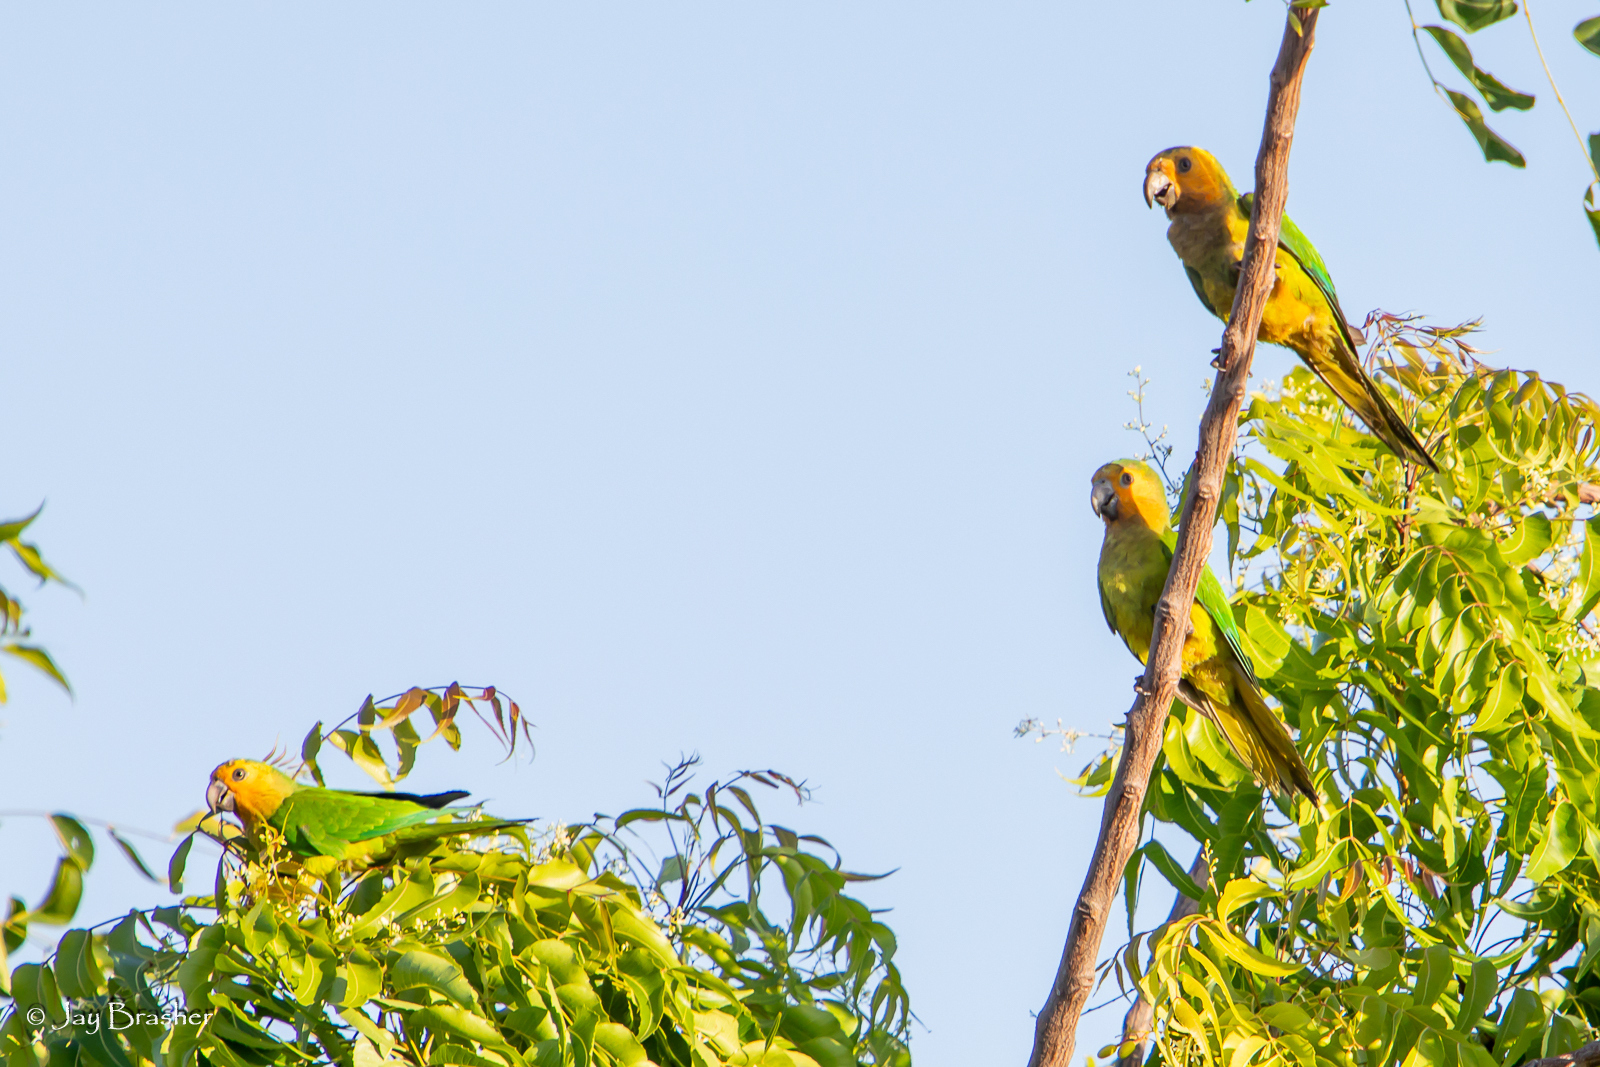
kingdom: Animalia
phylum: Chordata
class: Aves
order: Psittaciformes
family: Psittacidae
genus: Aratinga
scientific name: Aratinga pertinax
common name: Brown-throated parakeet
